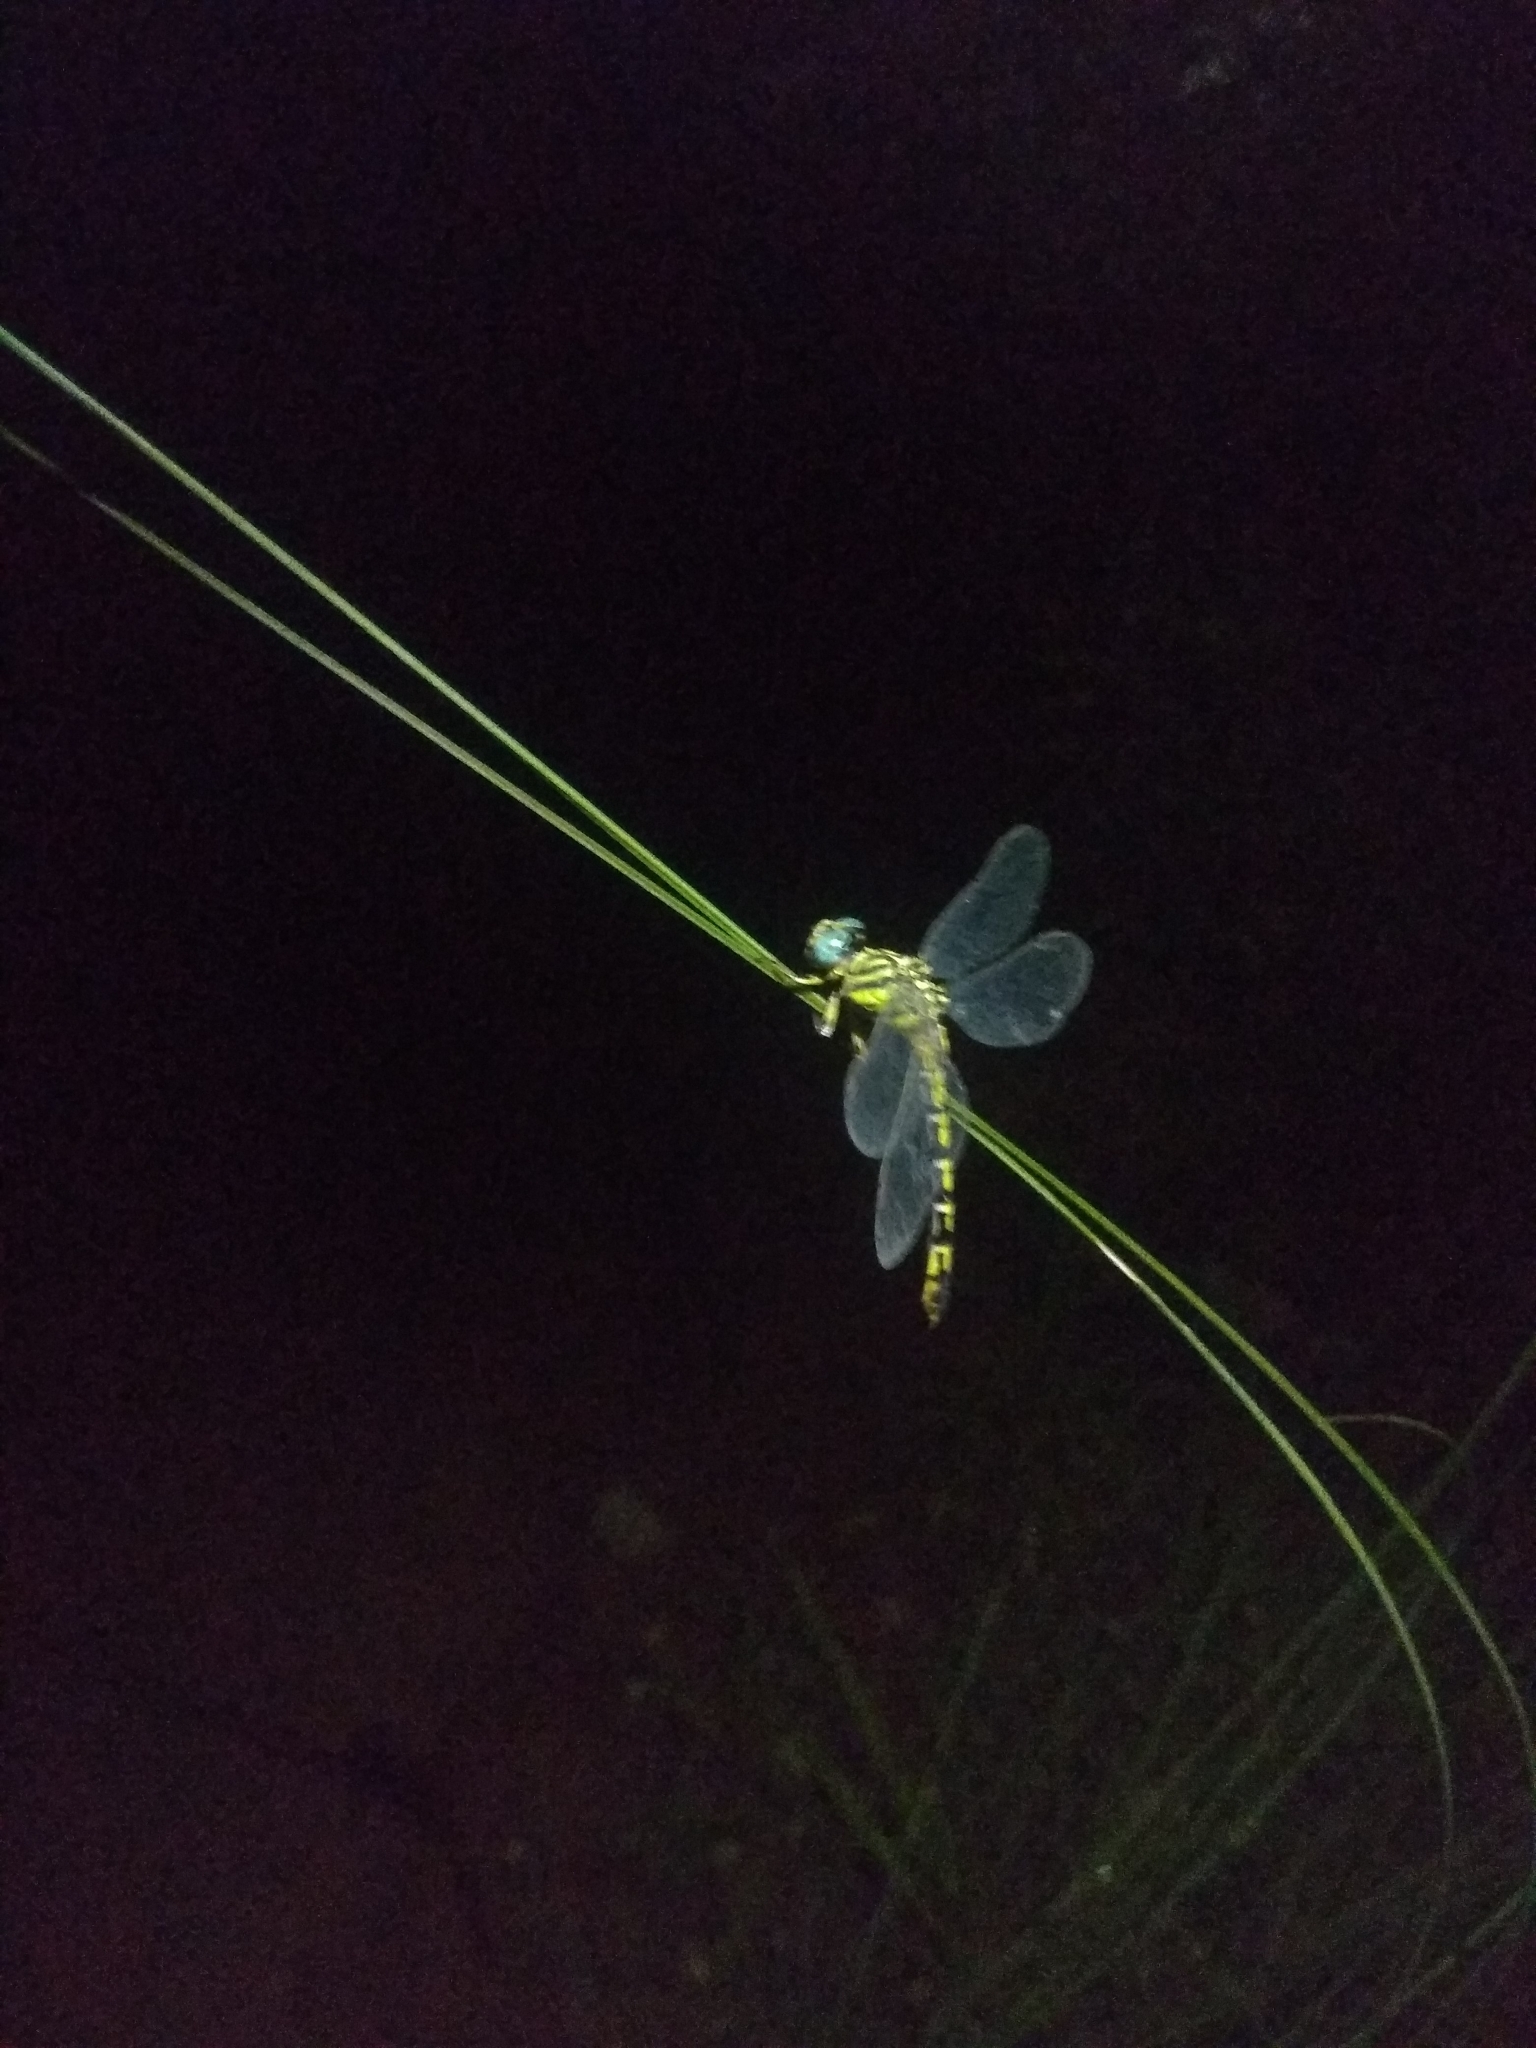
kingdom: Animalia
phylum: Arthropoda
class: Insecta
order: Odonata
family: Gomphidae
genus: Paragomphus
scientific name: Paragomphus lineatus
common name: Lined hooktail
